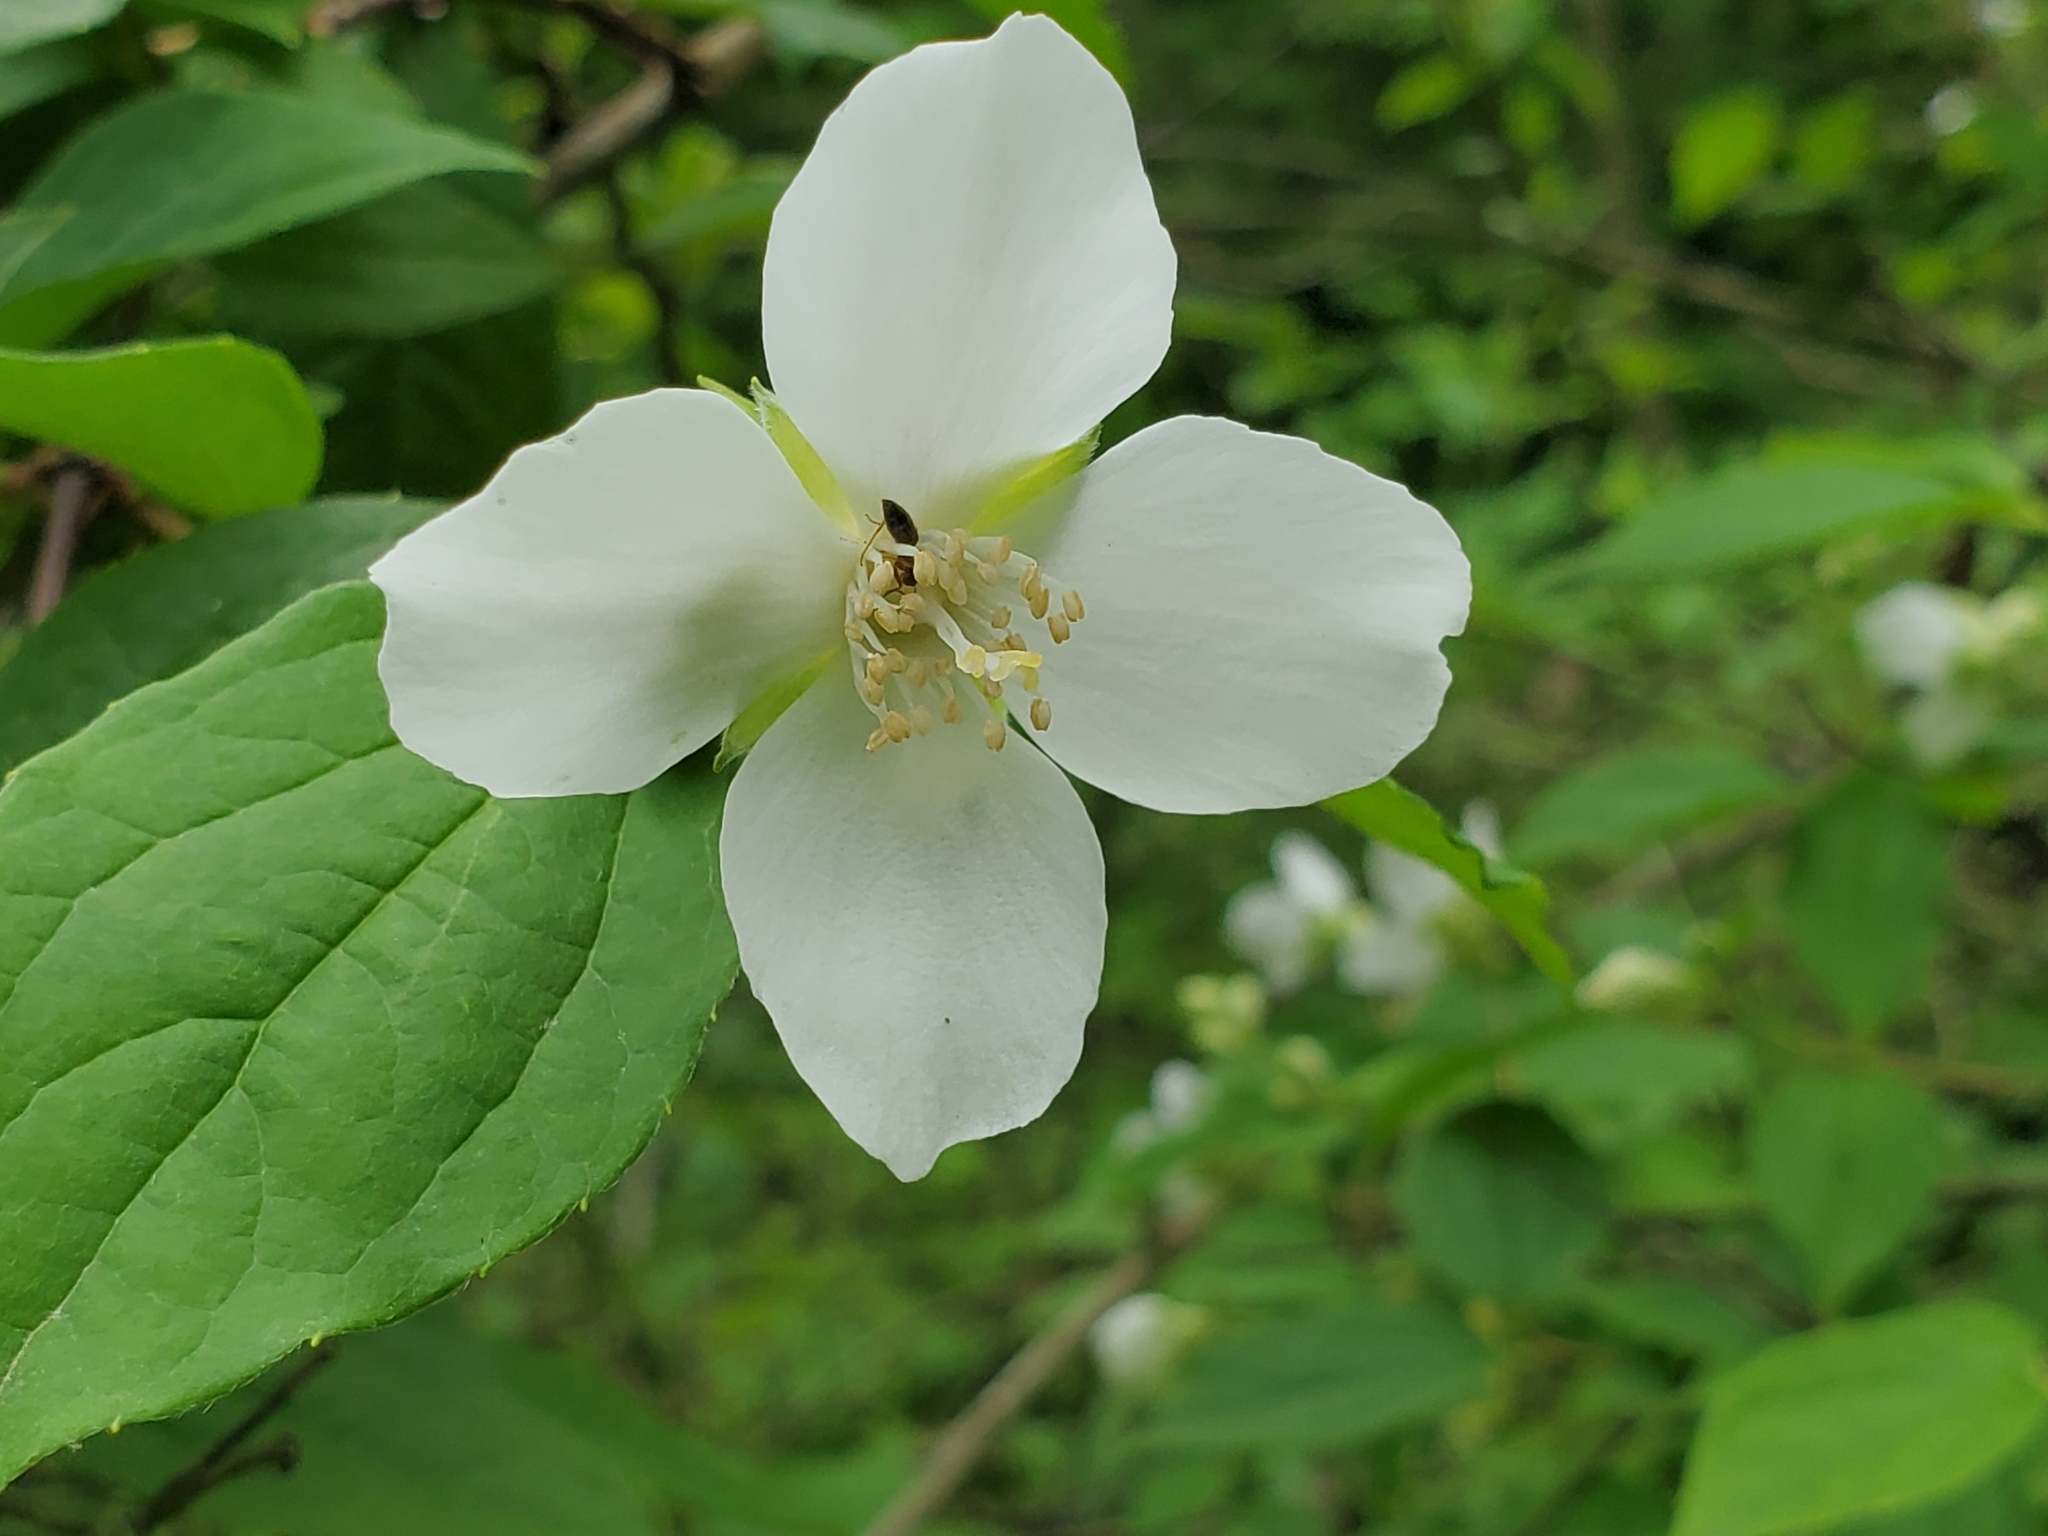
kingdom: Plantae
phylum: Tracheophyta
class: Magnoliopsida
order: Cornales
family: Hydrangeaceae
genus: Philadelphus
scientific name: Philadelphus coronarius
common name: Mock orange
